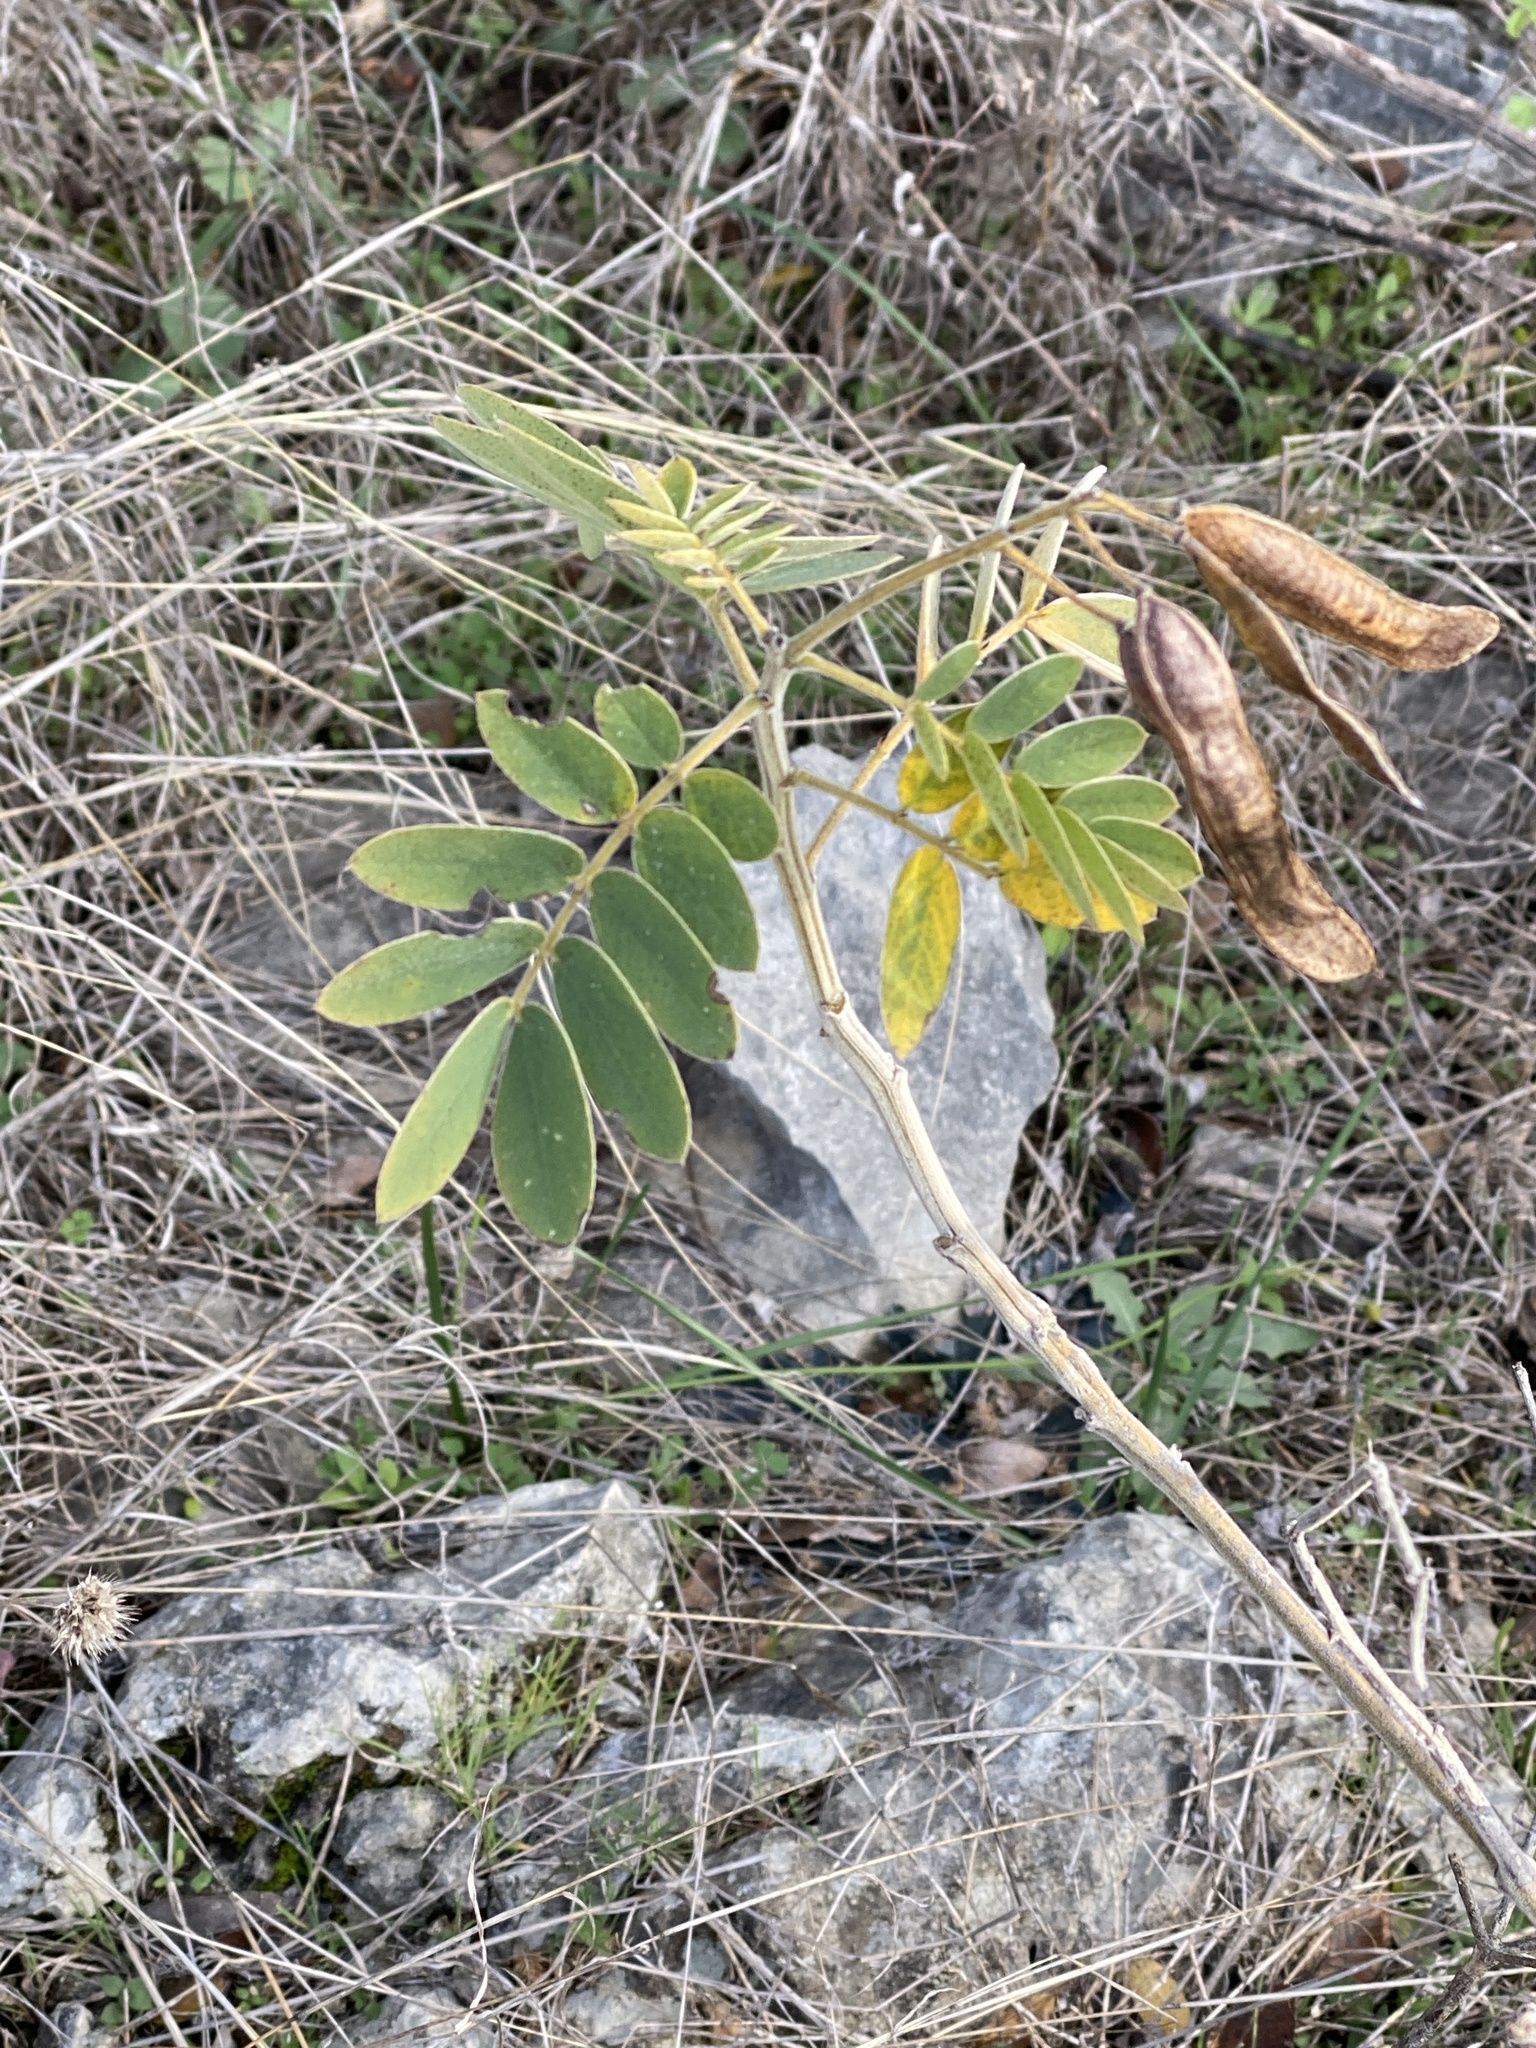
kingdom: Plantae
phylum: Tracheophyta
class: Magnoliopsida
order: Fabales
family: Fabaceae
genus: Senna
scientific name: Senna lindheimeriana
